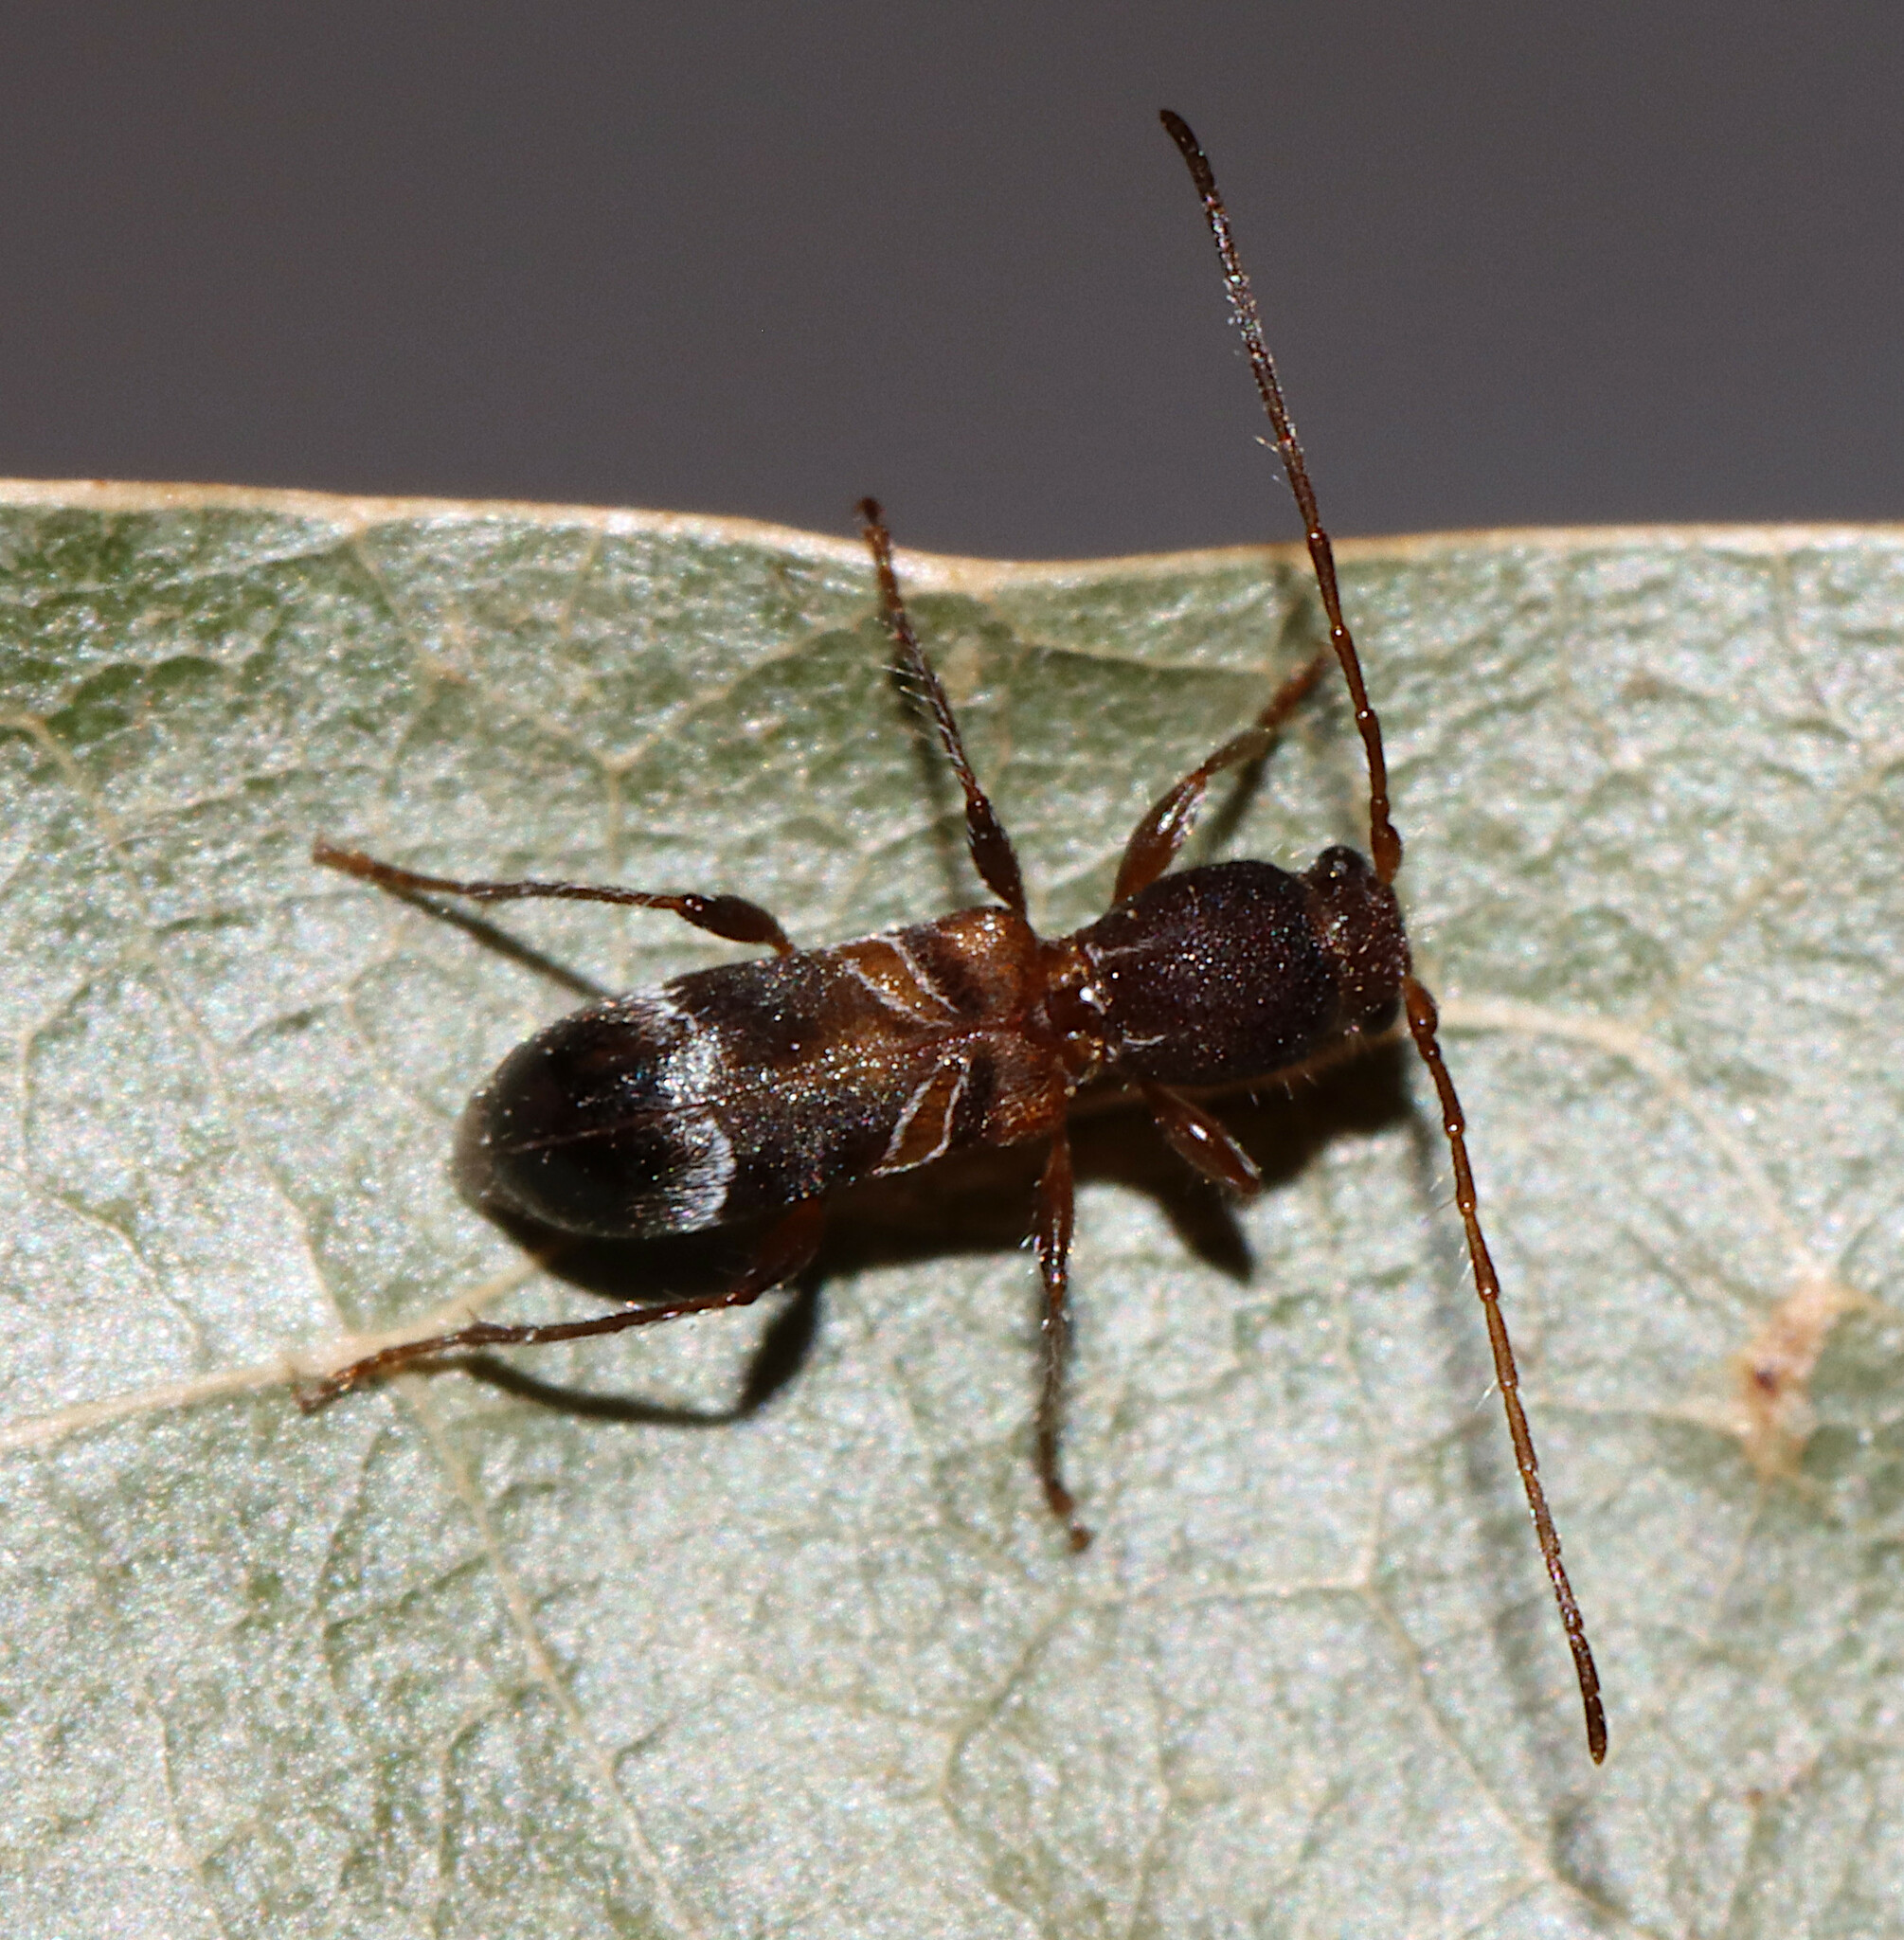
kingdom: Animalia
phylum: Arthropoda
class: Insecta
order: Coleoptera
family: Cerambycidae
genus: Tilloclytus
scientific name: Tilloclytus geminatus
